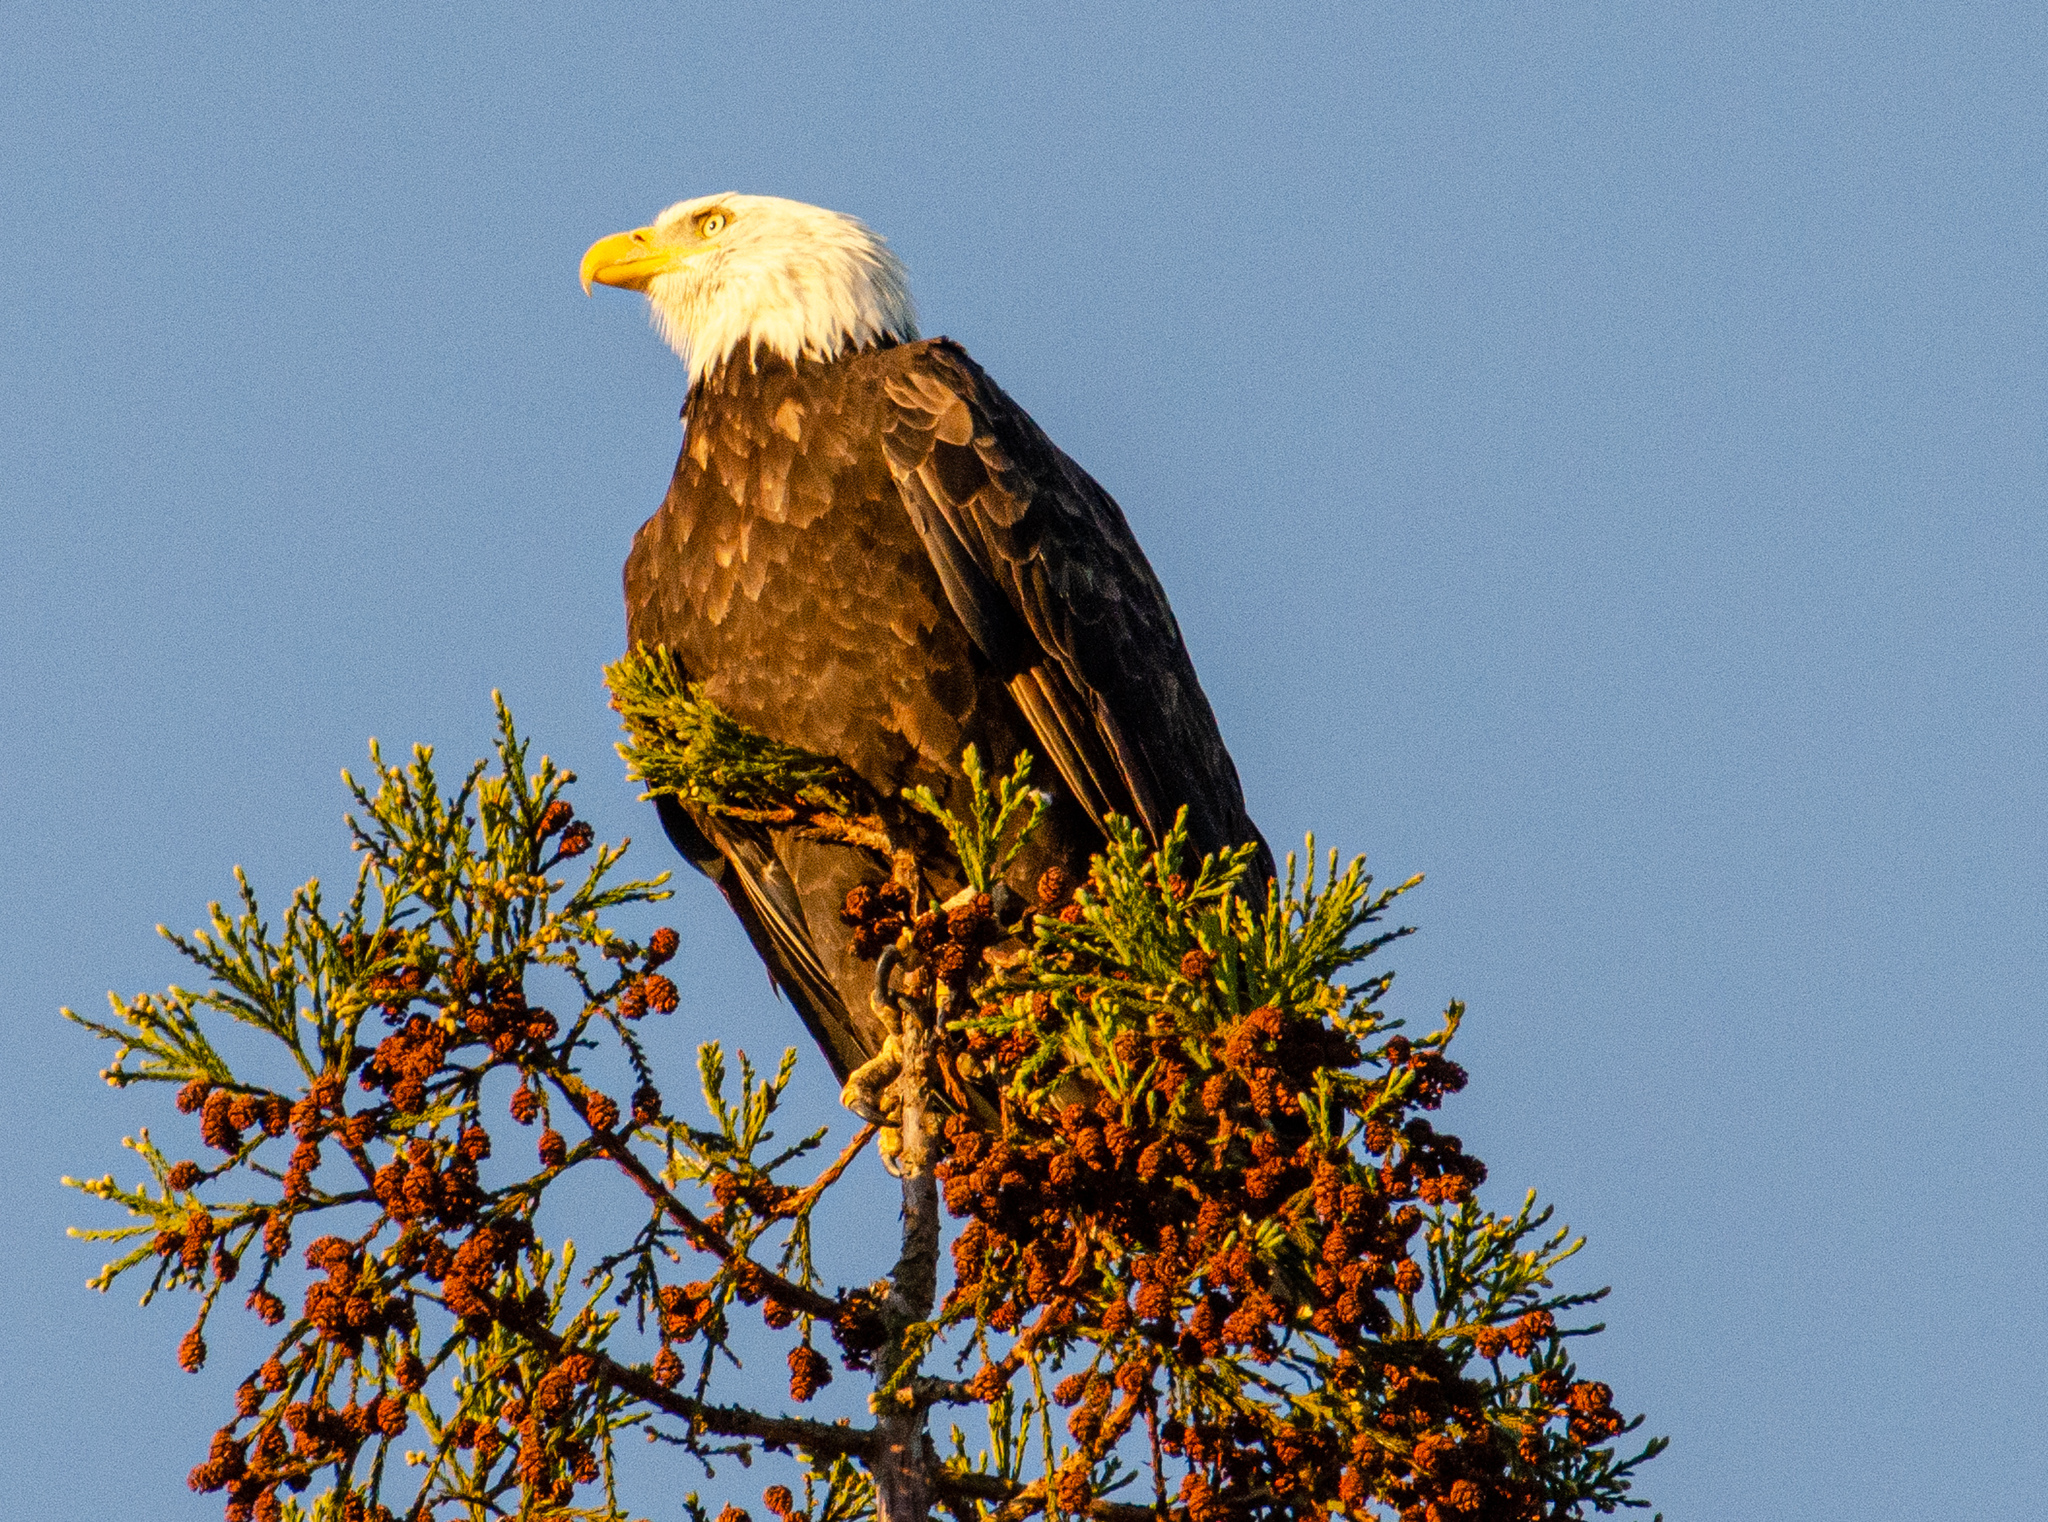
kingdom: Animalia
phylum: Chordata
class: Aves
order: Accipitriformes
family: Accipitridae
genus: Haliaeetus
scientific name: Haliaeetus leucocephalus
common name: Bald eagle
